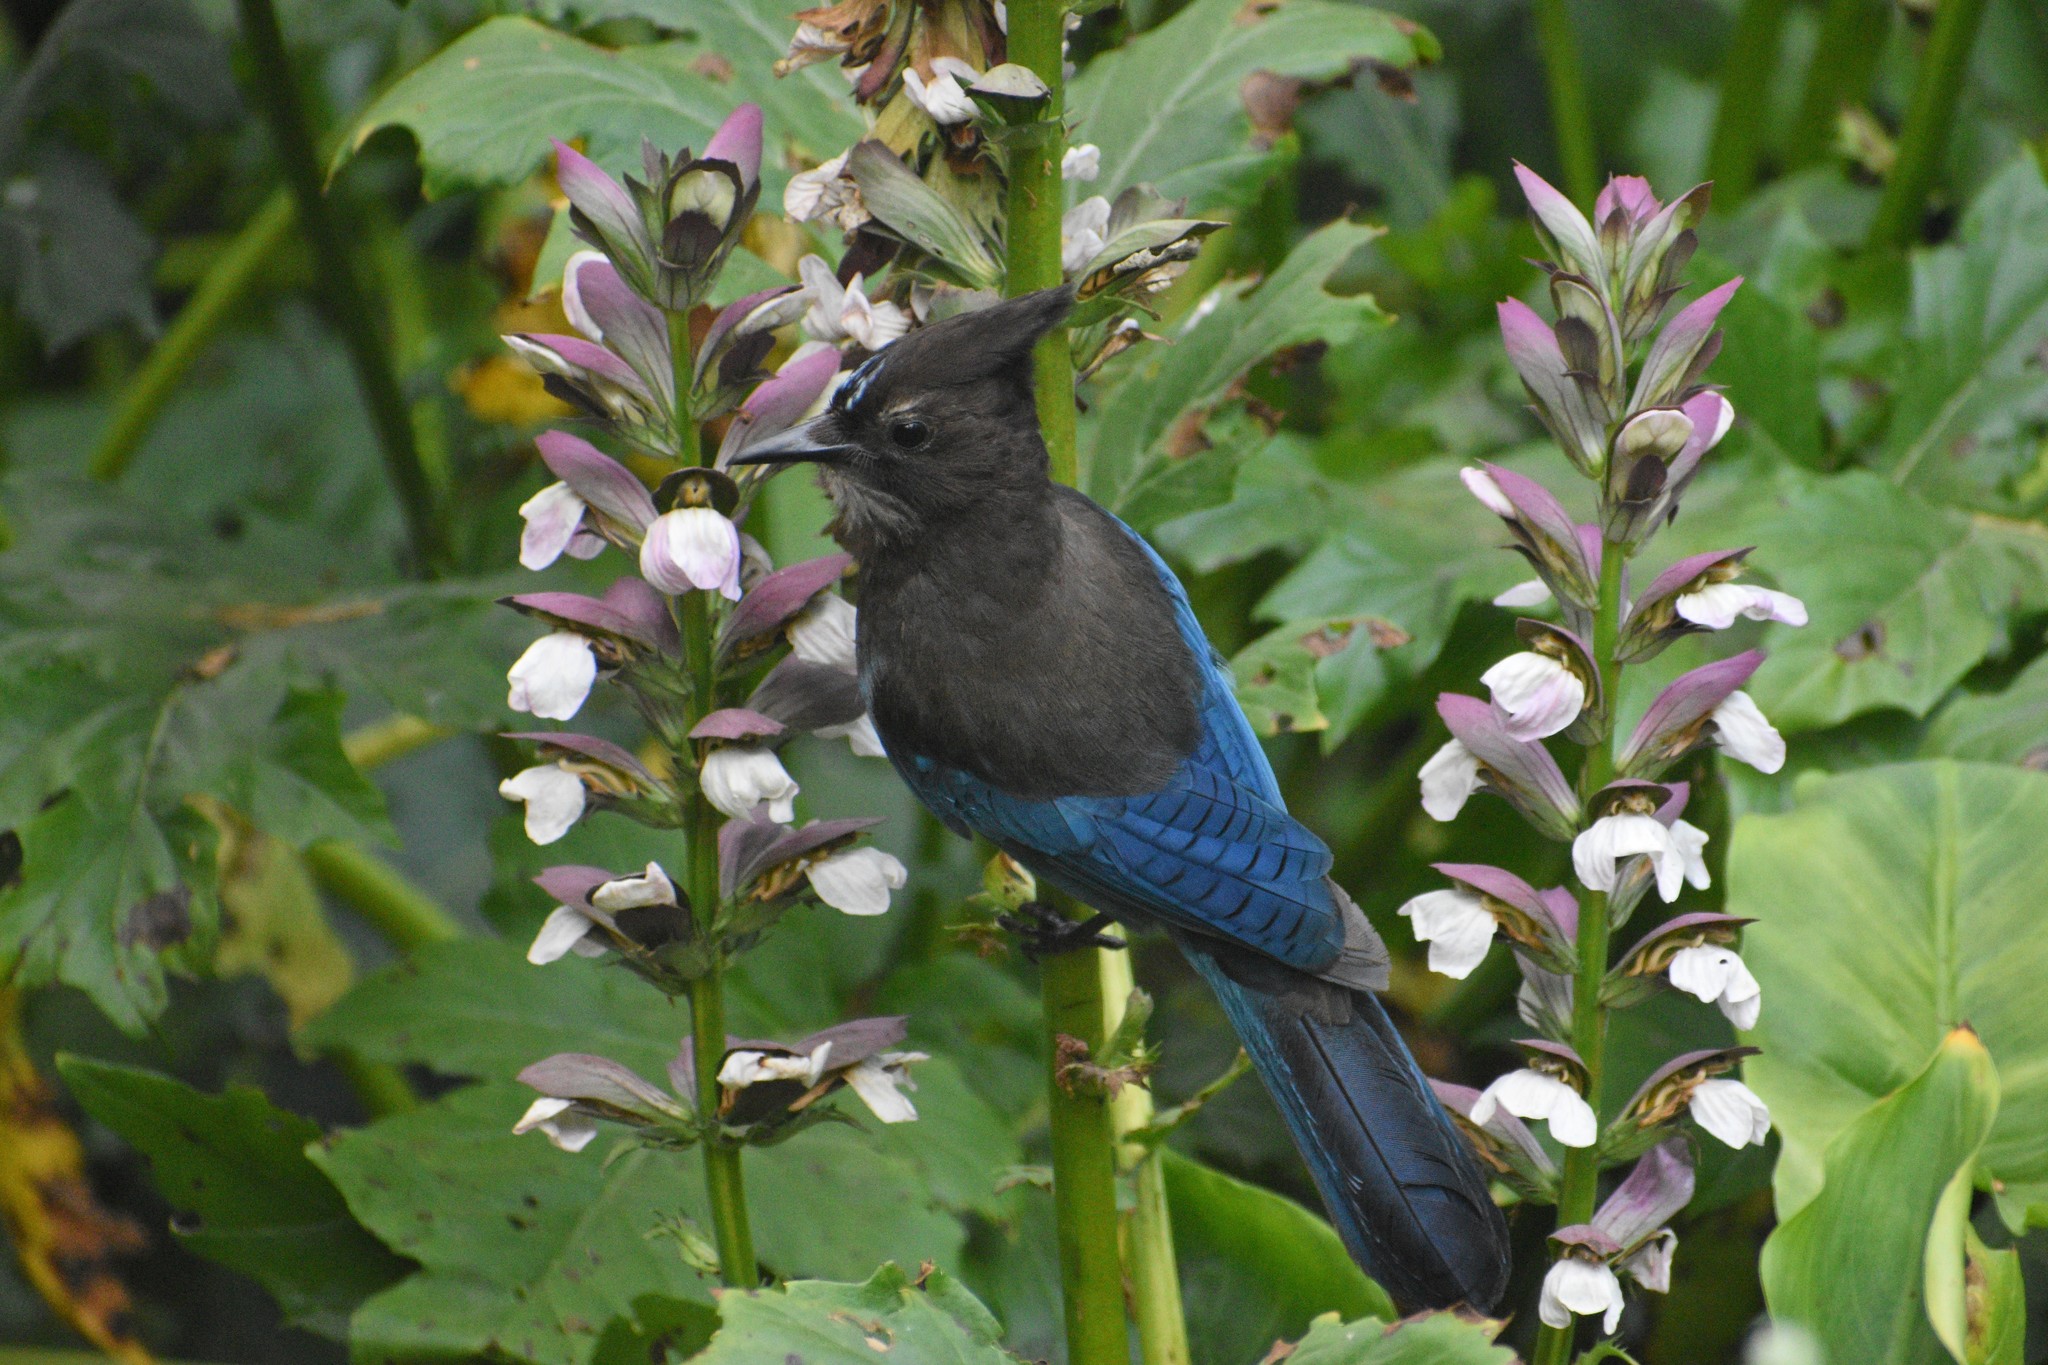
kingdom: Animalia
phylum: Chordata
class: Aves
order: Passeriformes
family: Corvidae
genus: Cyanocitta
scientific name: Cyanocitta stelleri
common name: Steller's jay
